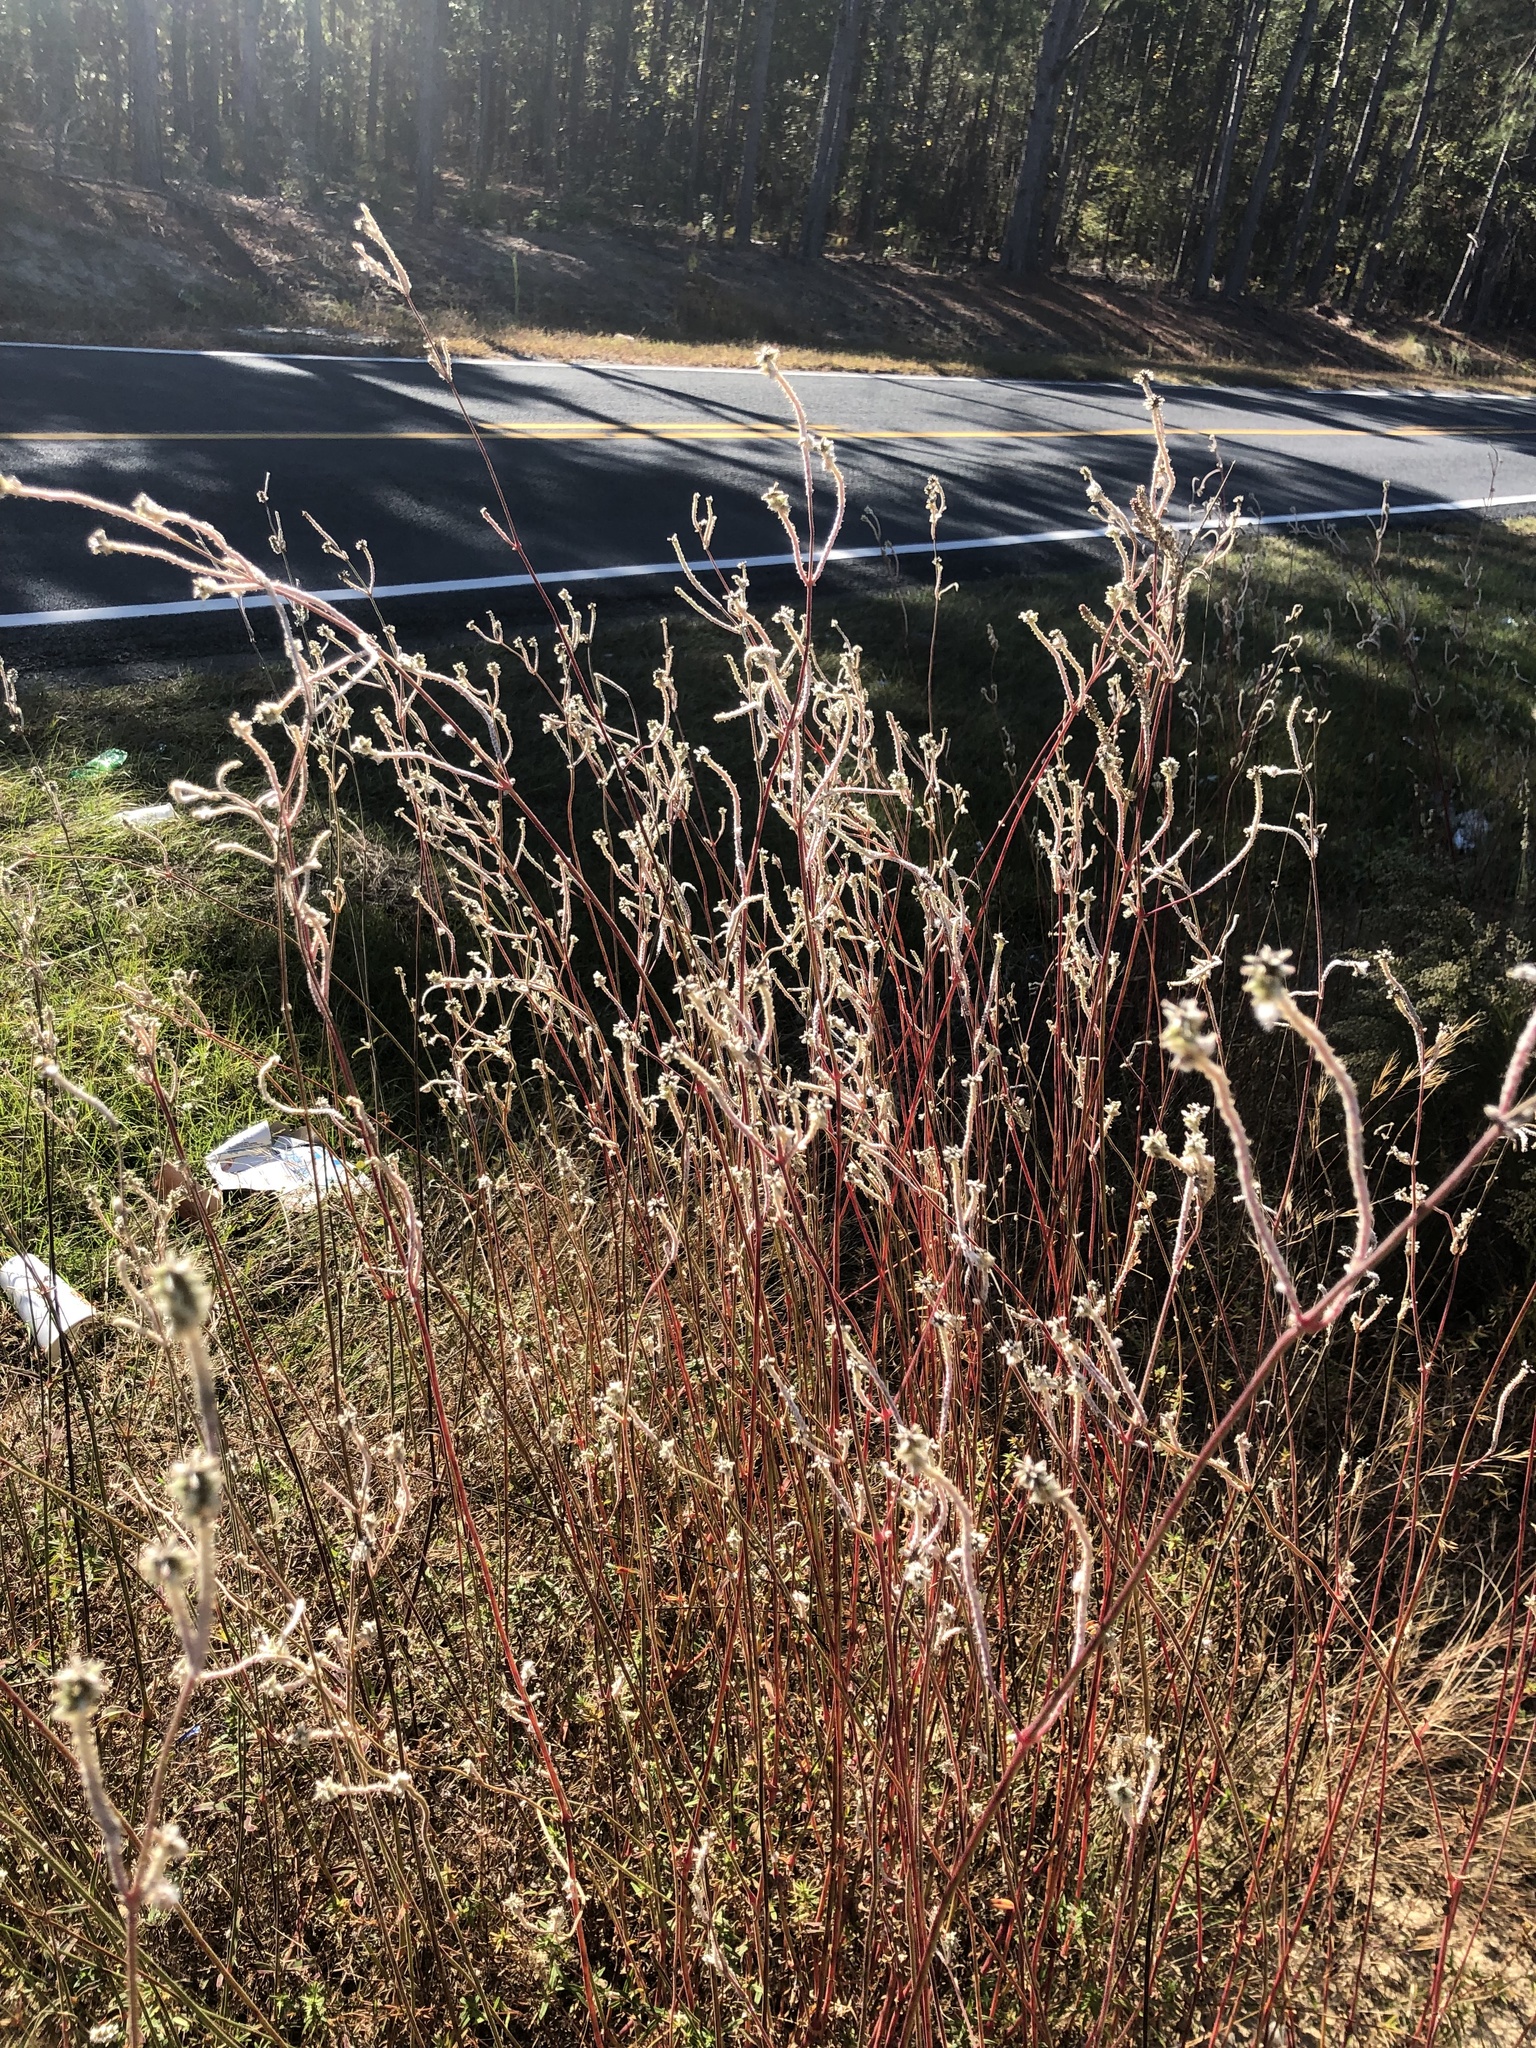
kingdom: Plantae
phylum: Tracheophyta
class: Magnoliopsida
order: Caryophyllales
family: Amaranthaceae
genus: Froelichia
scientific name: Froelichia floridana
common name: Florida snake-cotton
